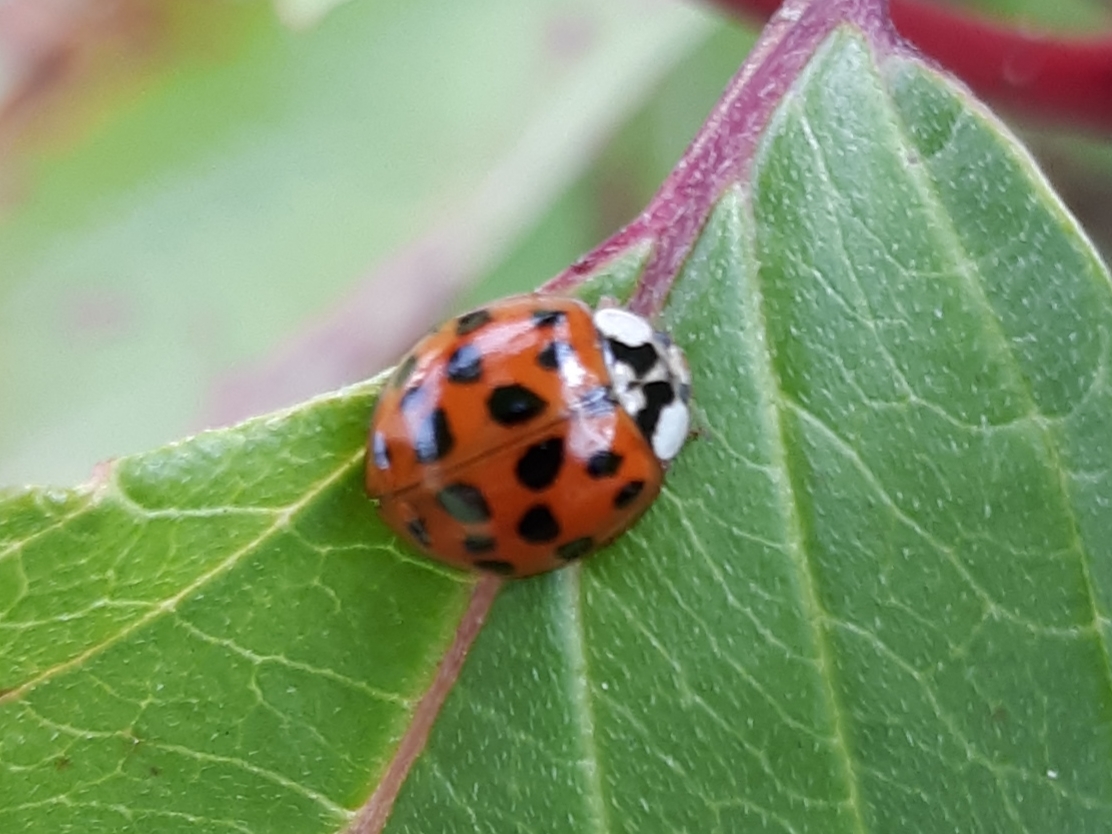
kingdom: Animalia
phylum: Arthropoda
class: Insecta
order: Coleoptera
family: Coccinellidae
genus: Harmonia
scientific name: Harmonia axyridis
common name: Harlequin ladybird
